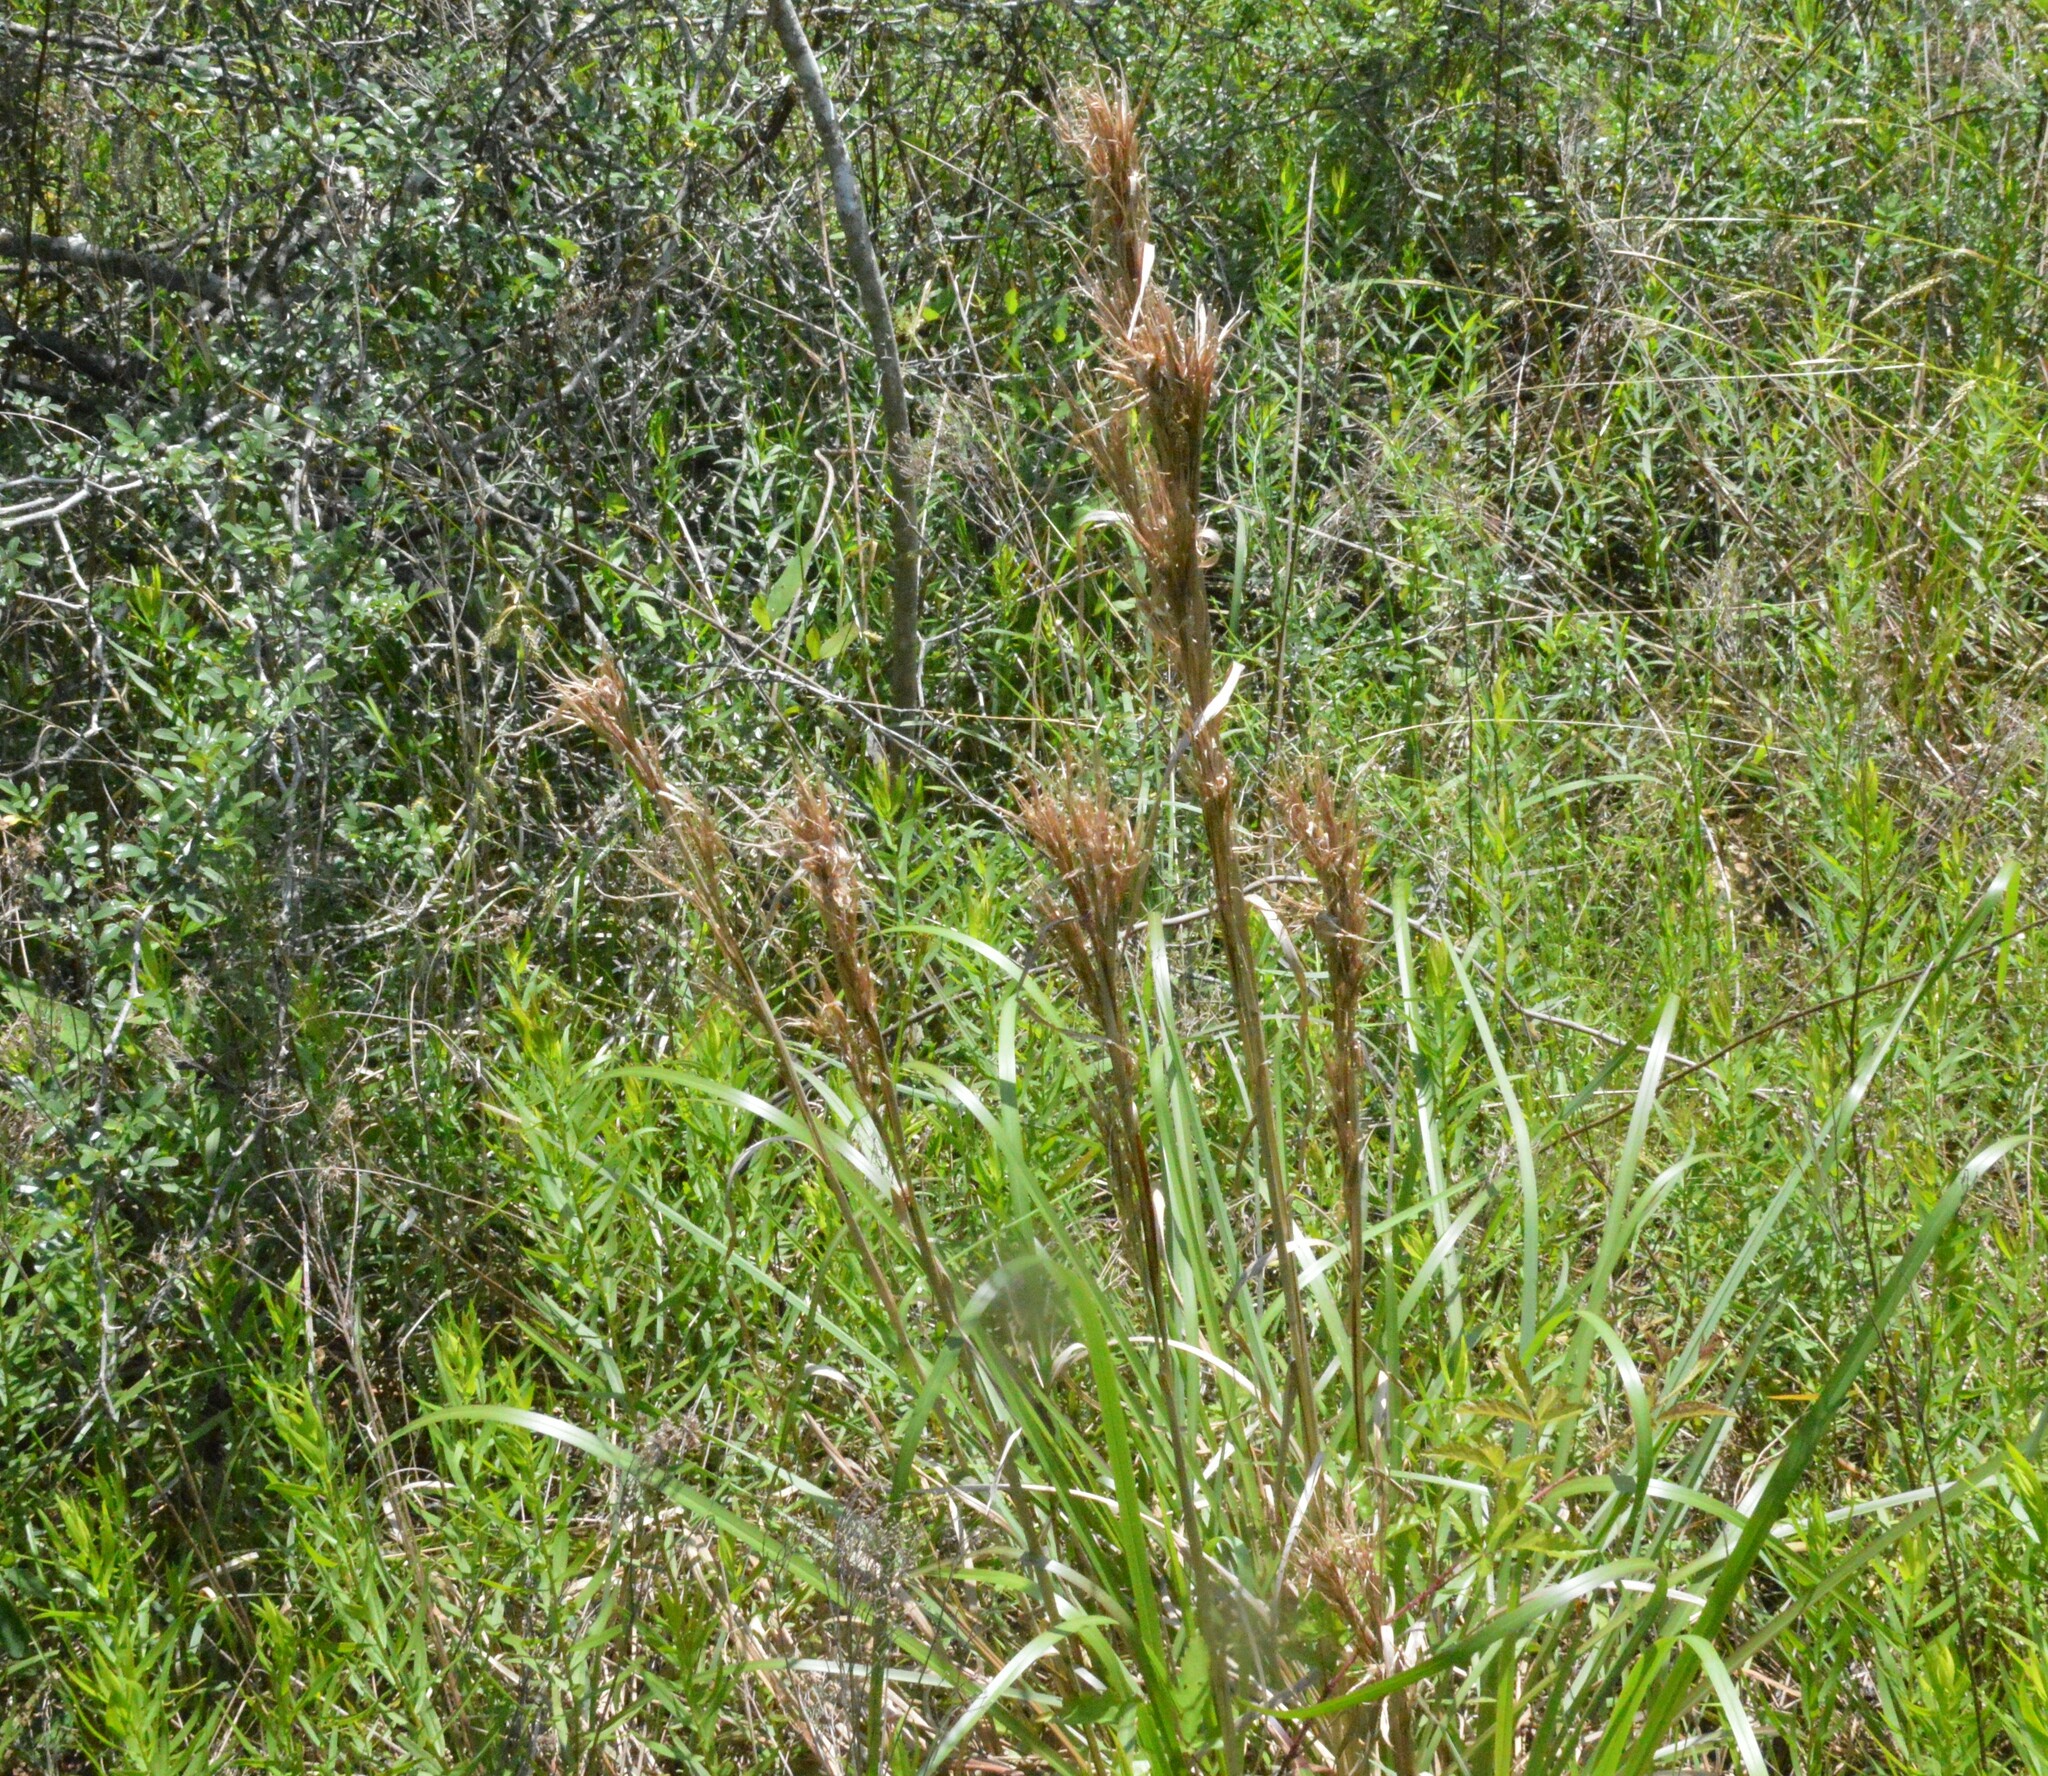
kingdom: Plantae
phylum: Tracheophyta
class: Liliopsida
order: Poales
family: Poaceae
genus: Andropogon
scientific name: Andropogon tenuispatheus
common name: Bushy bluestem
